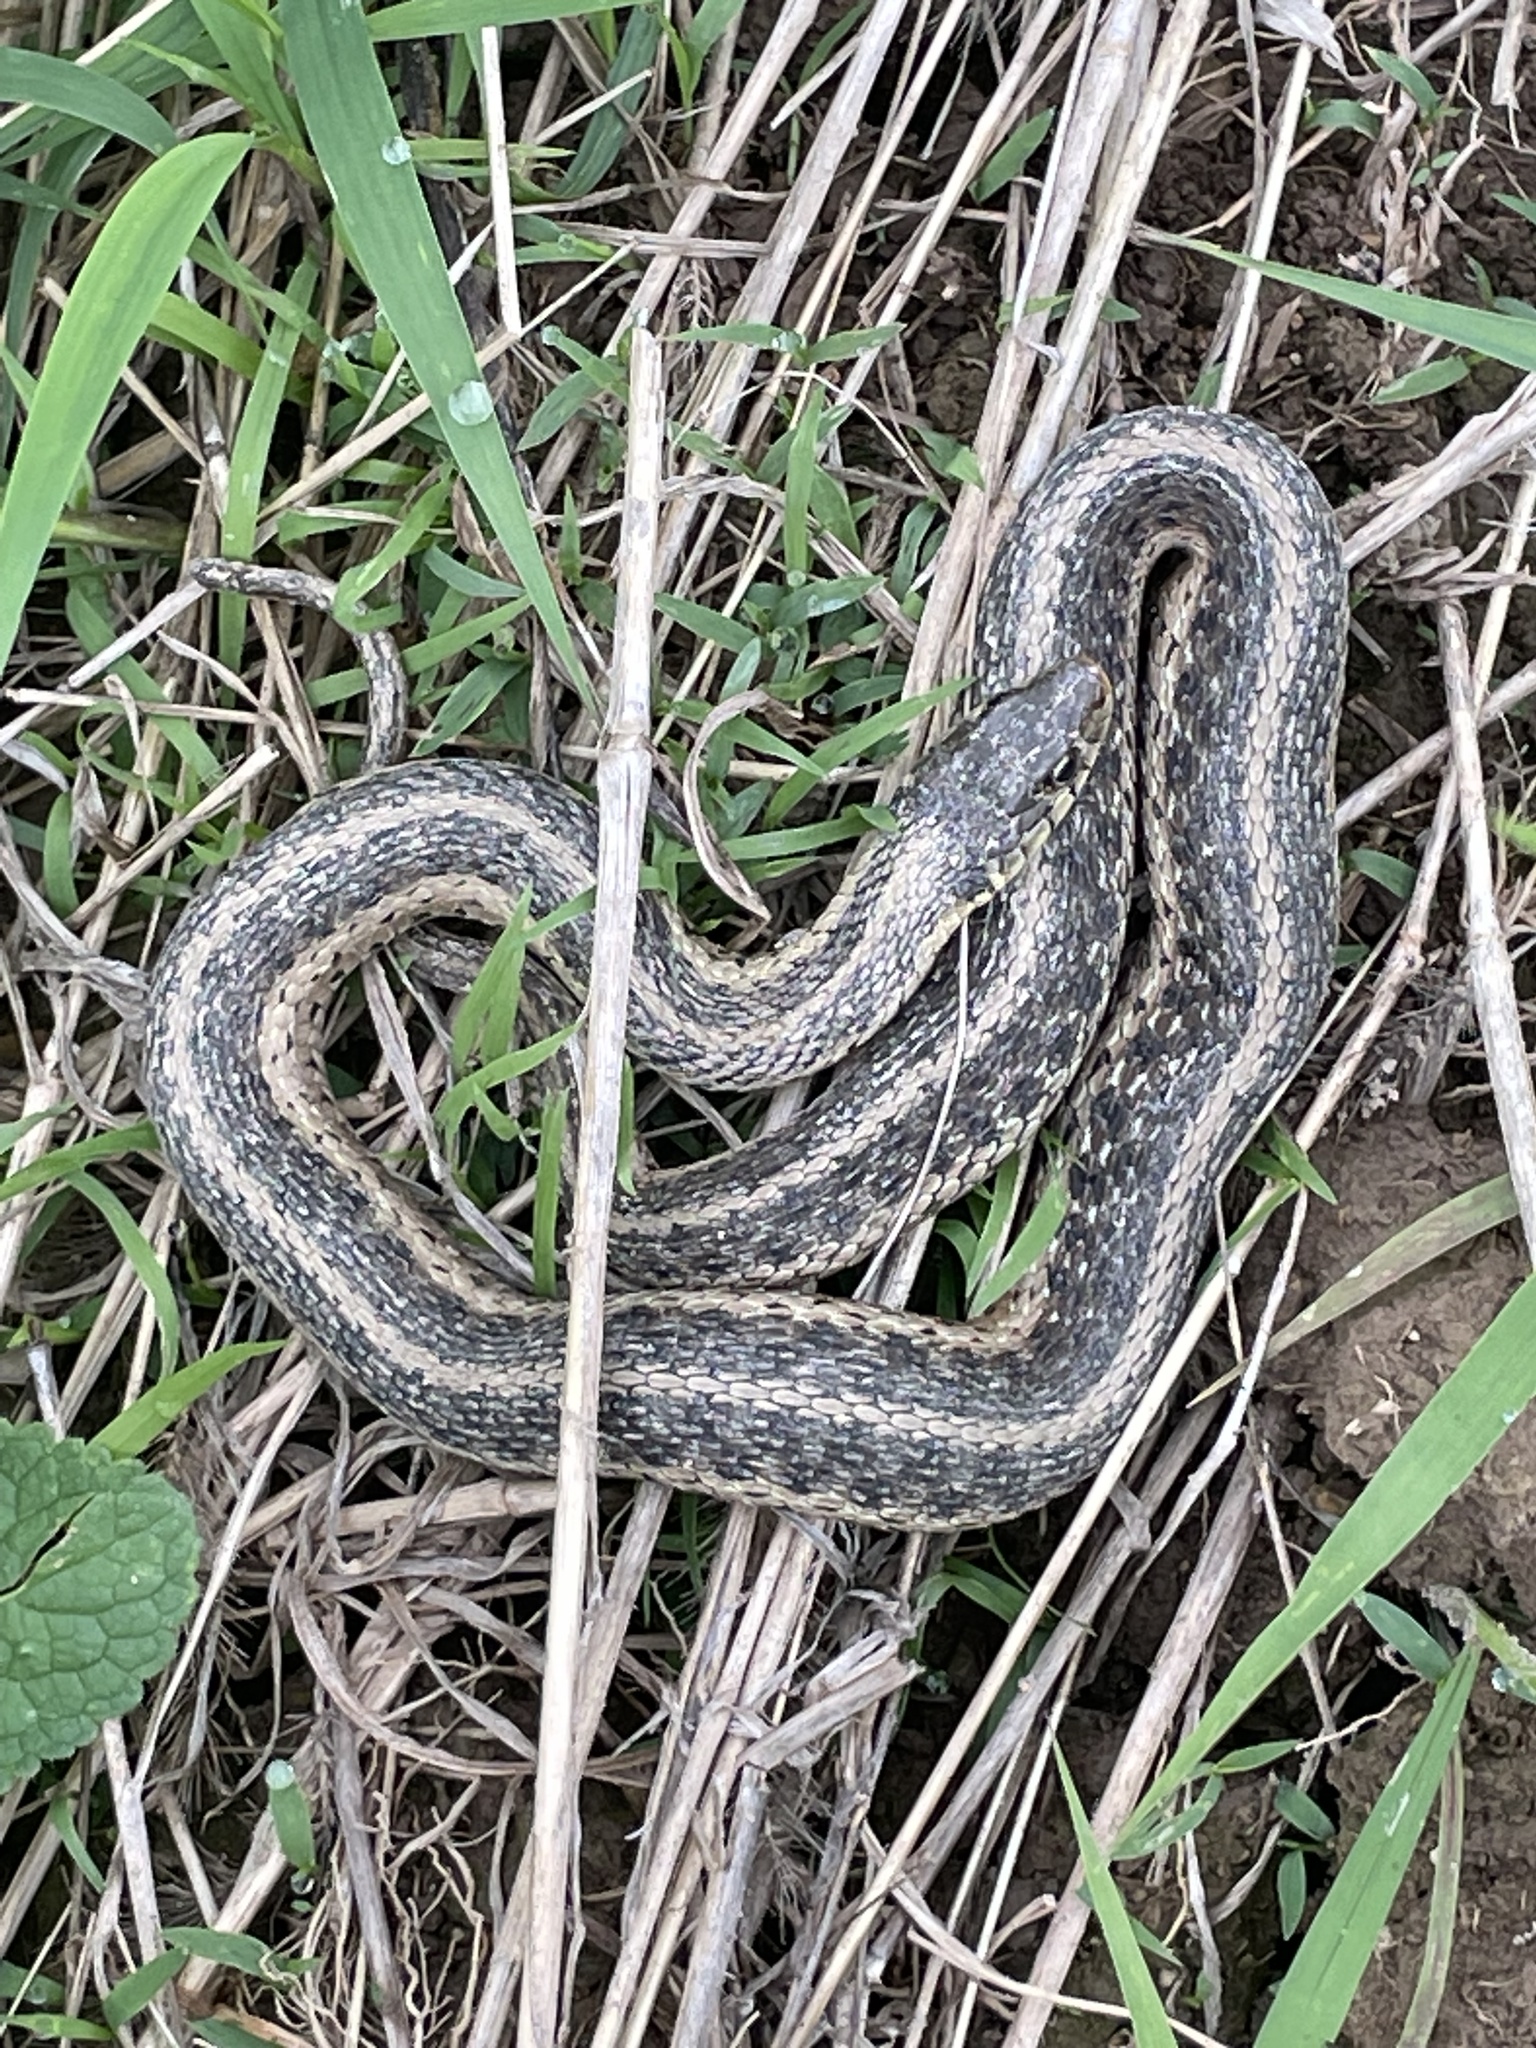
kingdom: Animalia
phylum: Chordata
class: Squamata
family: Colubridae
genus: Thamnophis
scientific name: Thamnophis sirtalis
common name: Common garter snake
